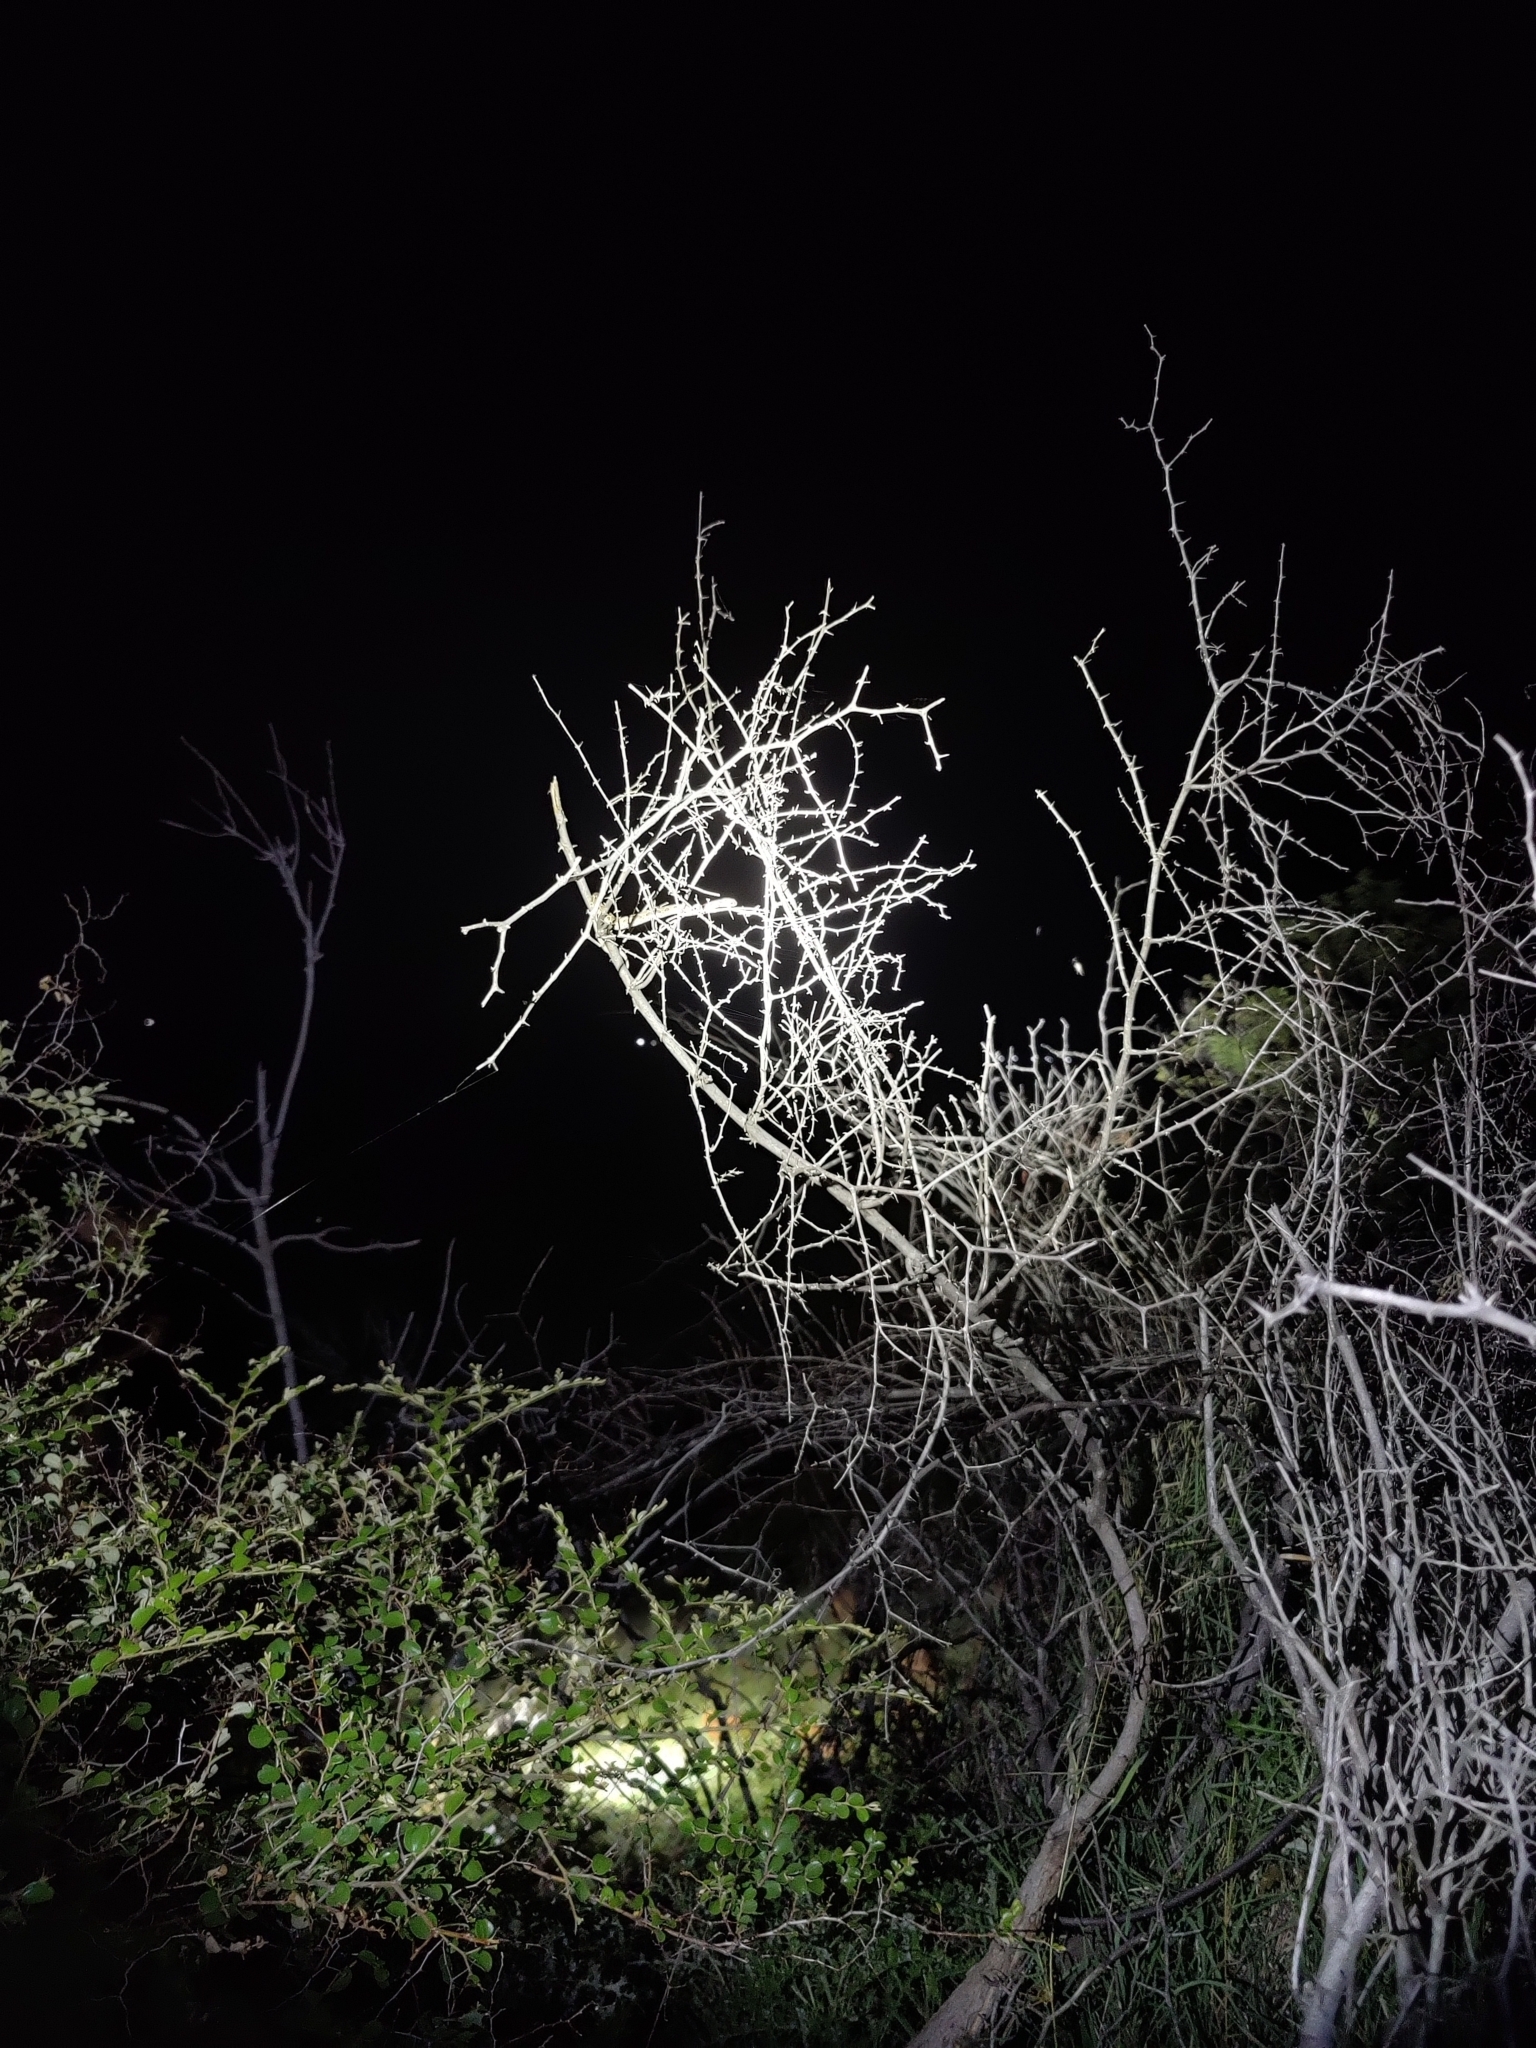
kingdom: Animalia
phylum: Chordata
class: Squamata
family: Viperidae
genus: Echis
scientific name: Echis carinatus
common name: Saw-scaled viper
